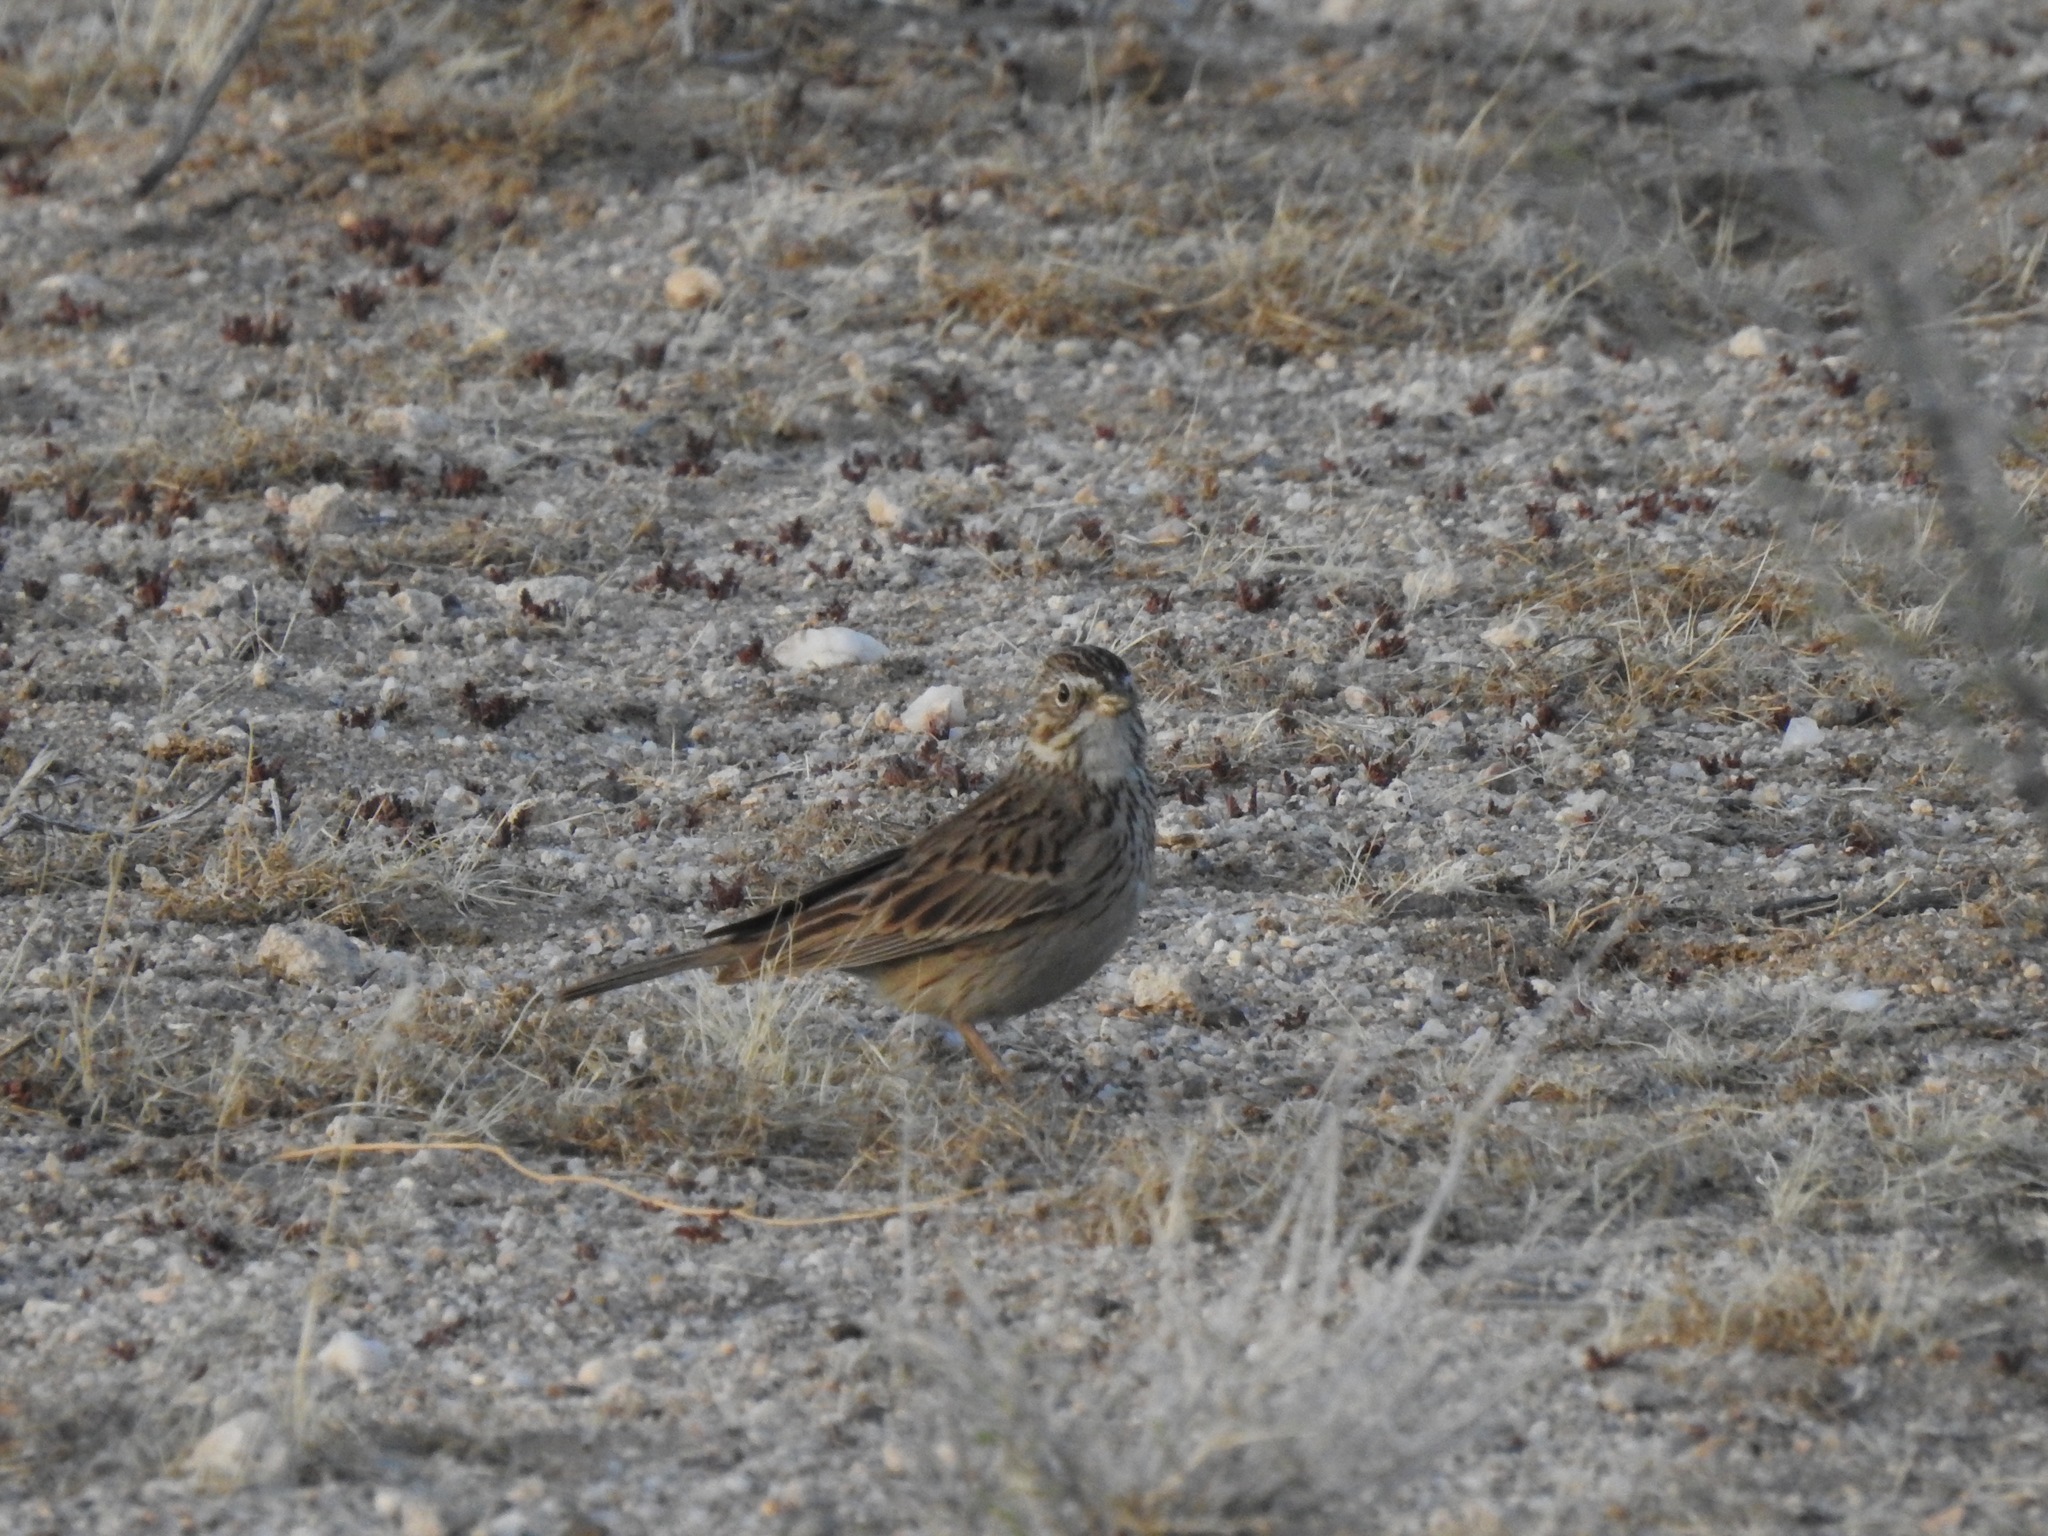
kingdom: Animalia
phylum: Chordata
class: Aves
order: Passeriformes
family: Passerellidae
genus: Pooecetes
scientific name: Pooecetes gramineus
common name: Vesper sparrow
